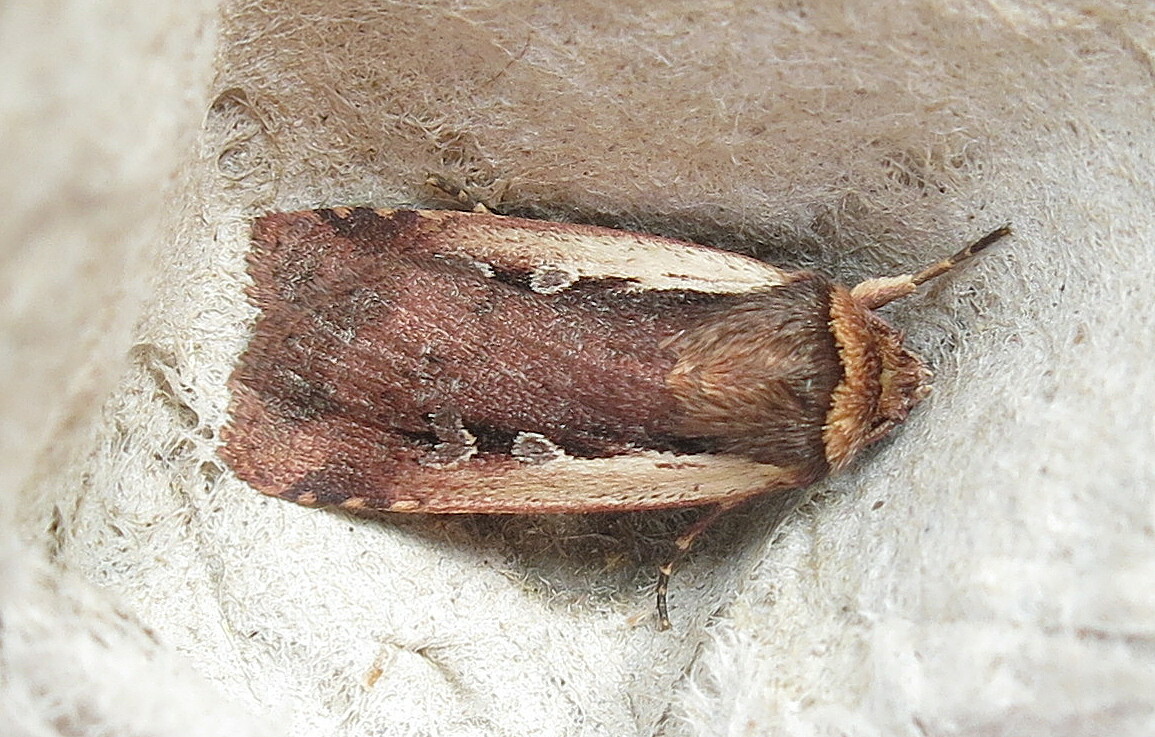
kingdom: Animalia
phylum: Arthropoda
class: Insecta
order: Lepidoptera
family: Noctuidae
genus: Ochropleura
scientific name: Ochropleura plecta
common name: Flame shoulder
